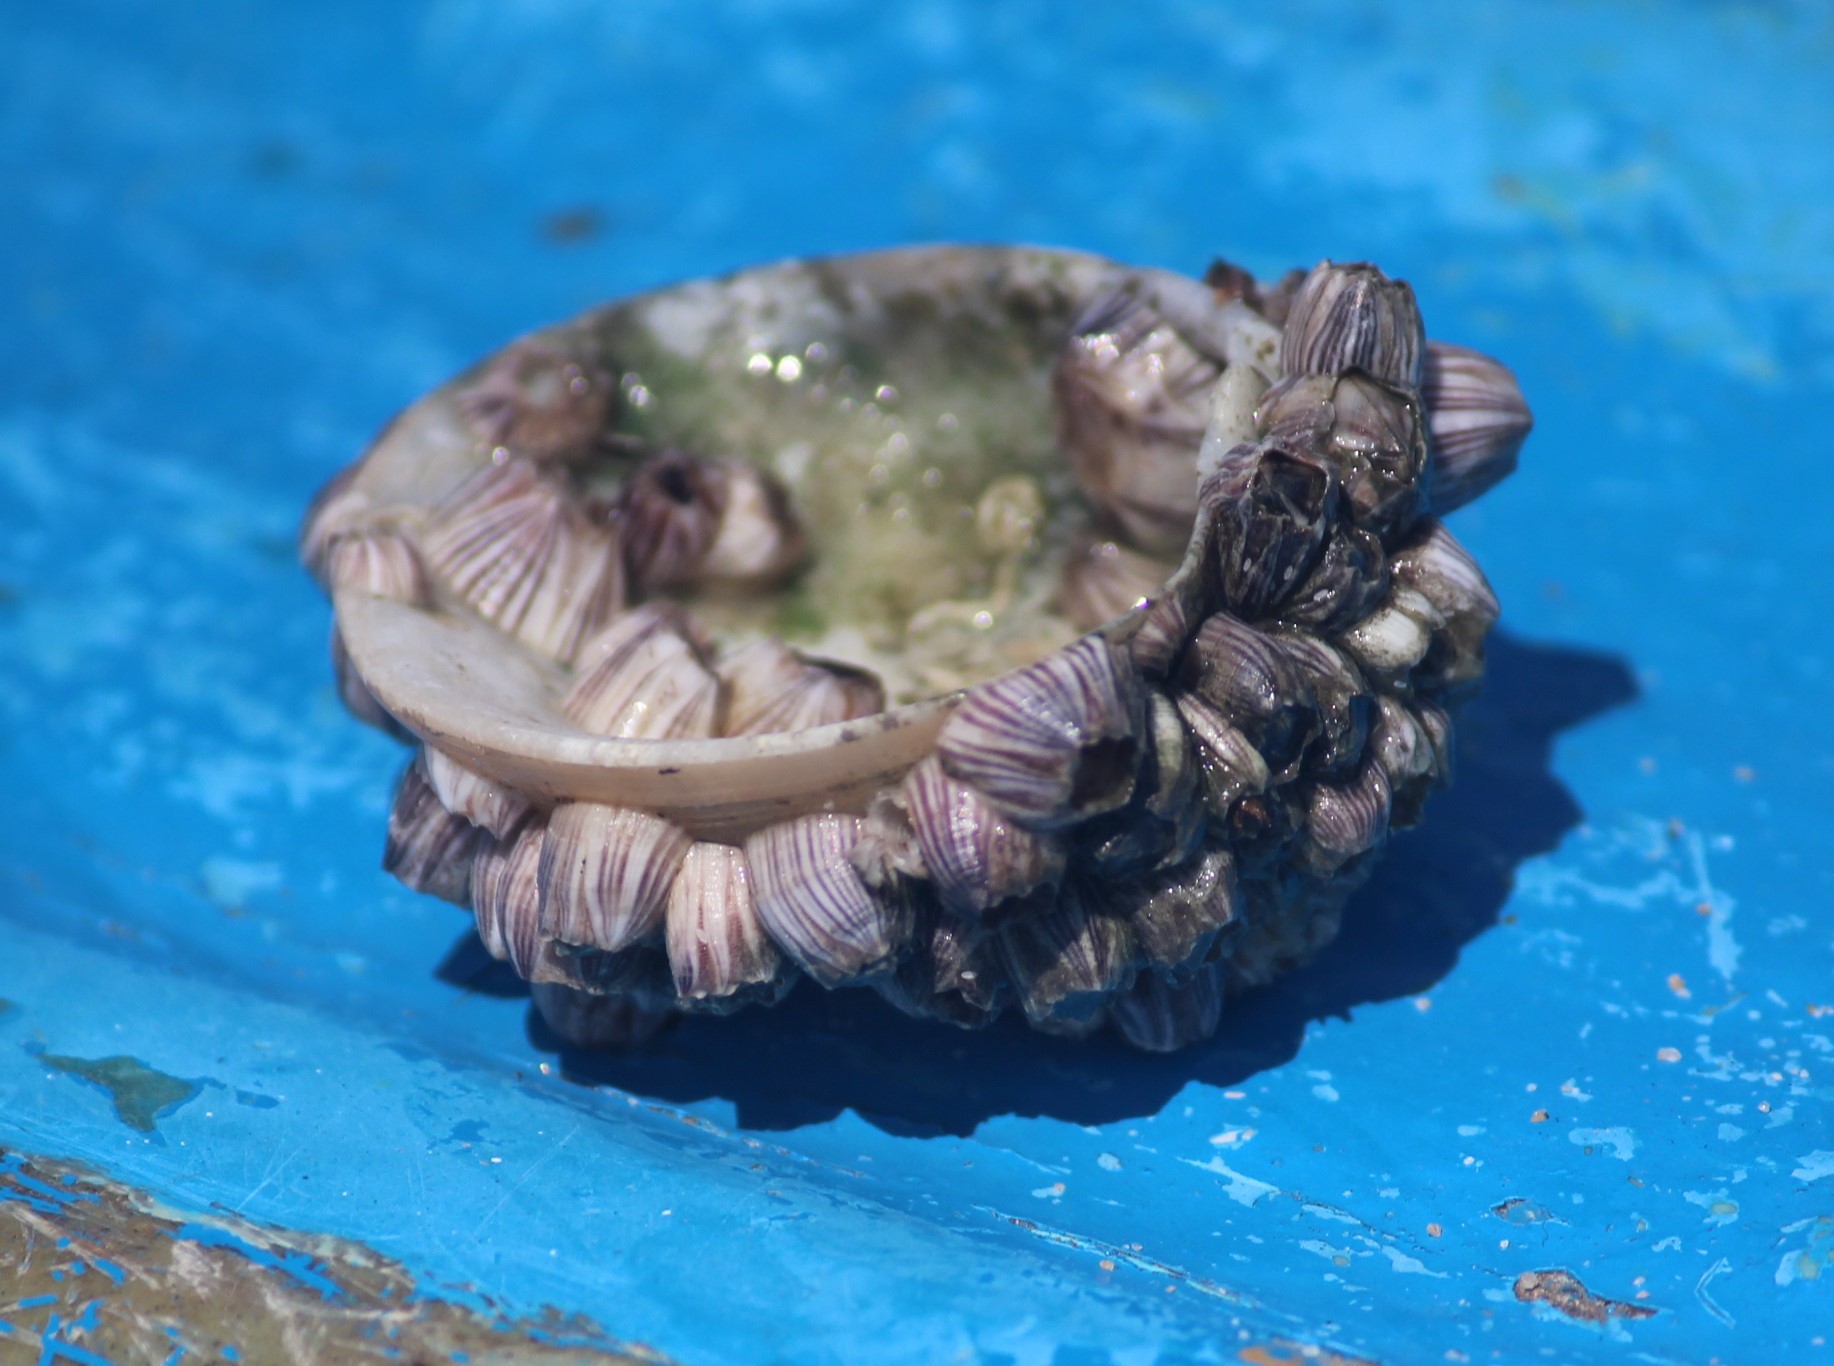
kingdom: Animalia
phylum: Arthropoda
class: Maxillopoda
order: Sessilia
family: Balanidae
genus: Amphibalanus
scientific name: Amphibalanus amphitrite
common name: Striped acorn barnacle
